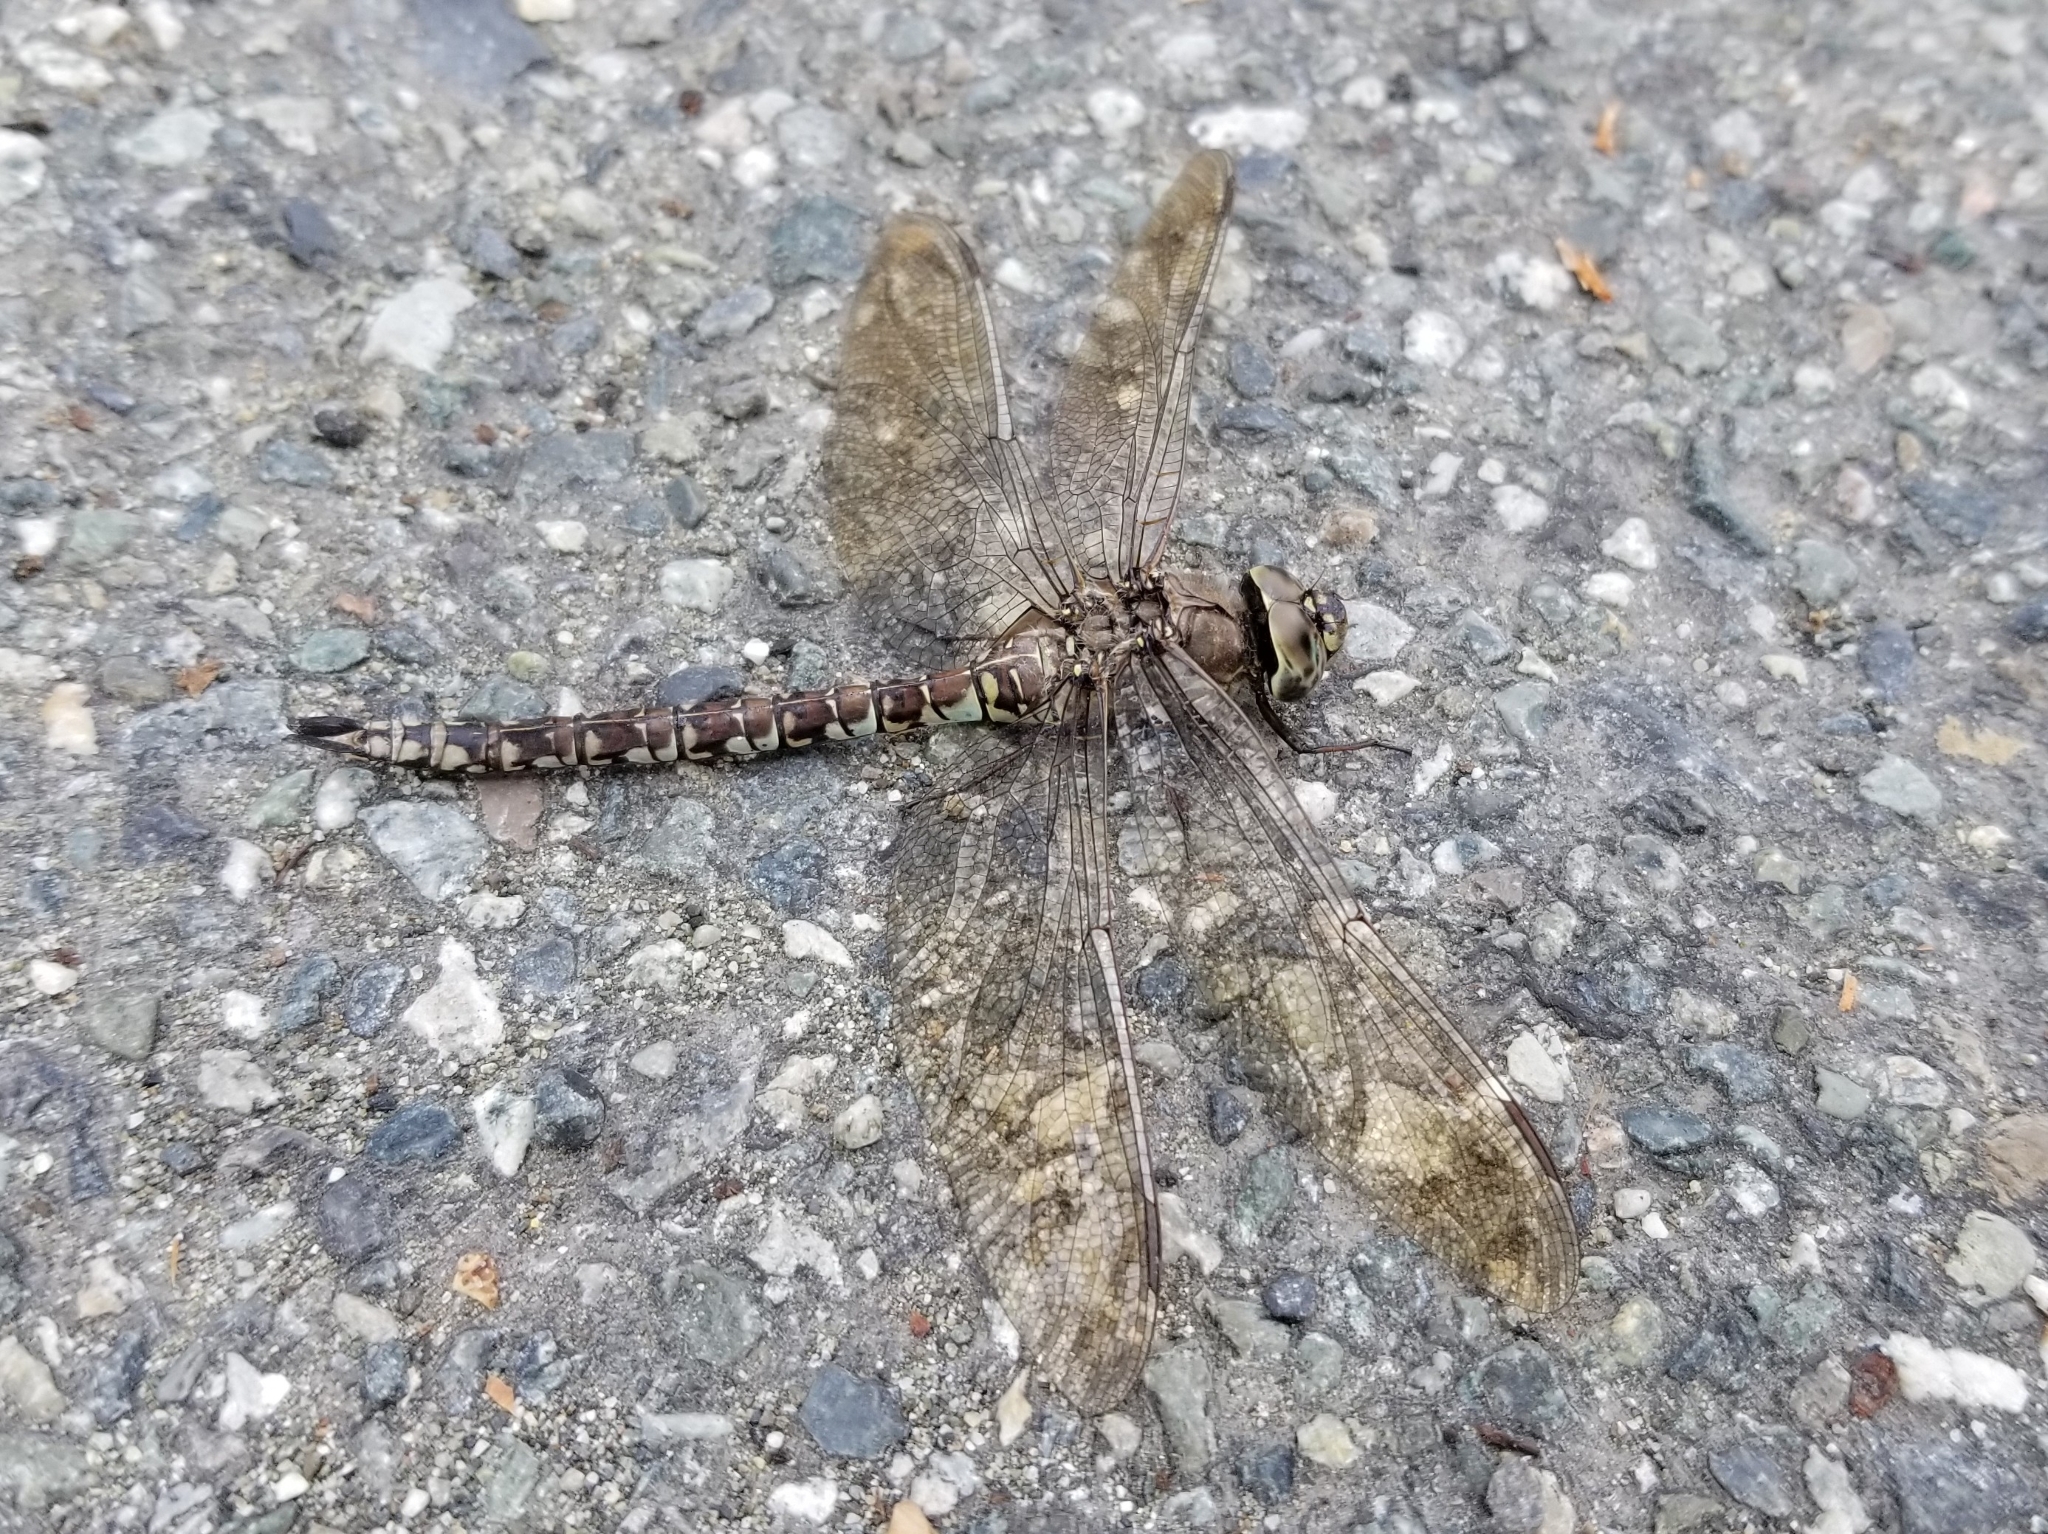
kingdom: Animalia
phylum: Arthropoda
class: Insecta
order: Odonata
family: Aeshnidae
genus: Aeshna
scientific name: Aeshna sitchensis
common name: Zigzag darner
